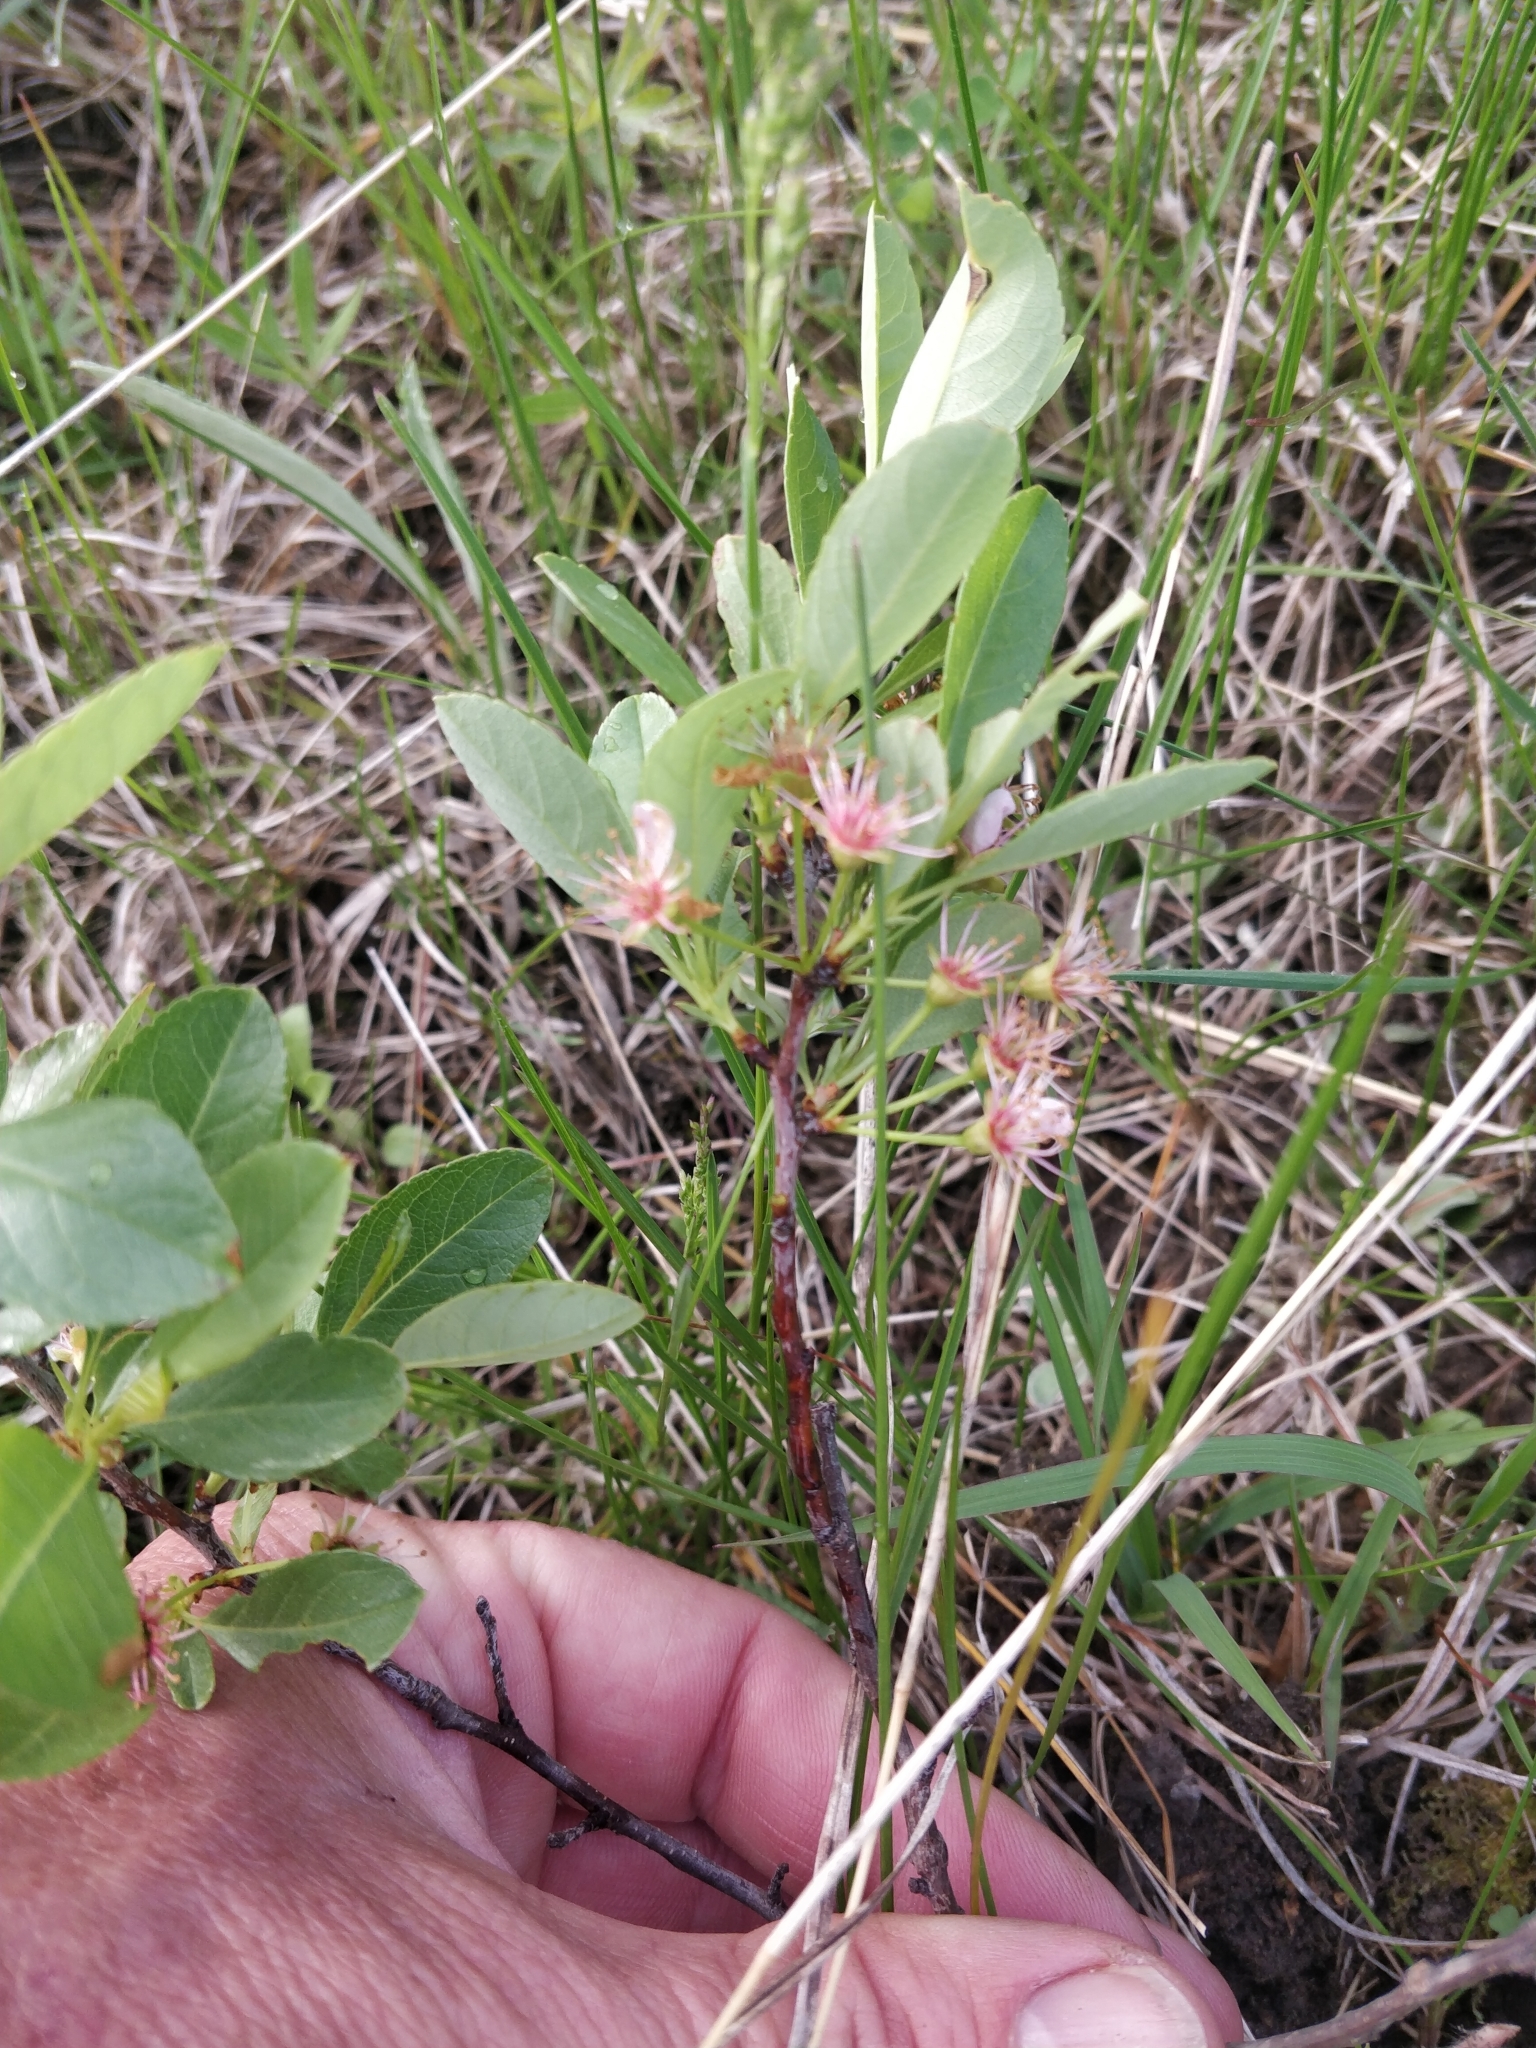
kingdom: Plantae
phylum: Tracheophyta
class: Magnoliopsida
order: Rosales
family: Rosaceae
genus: Prunus
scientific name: Prunus pumila
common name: Dwarf cherry
